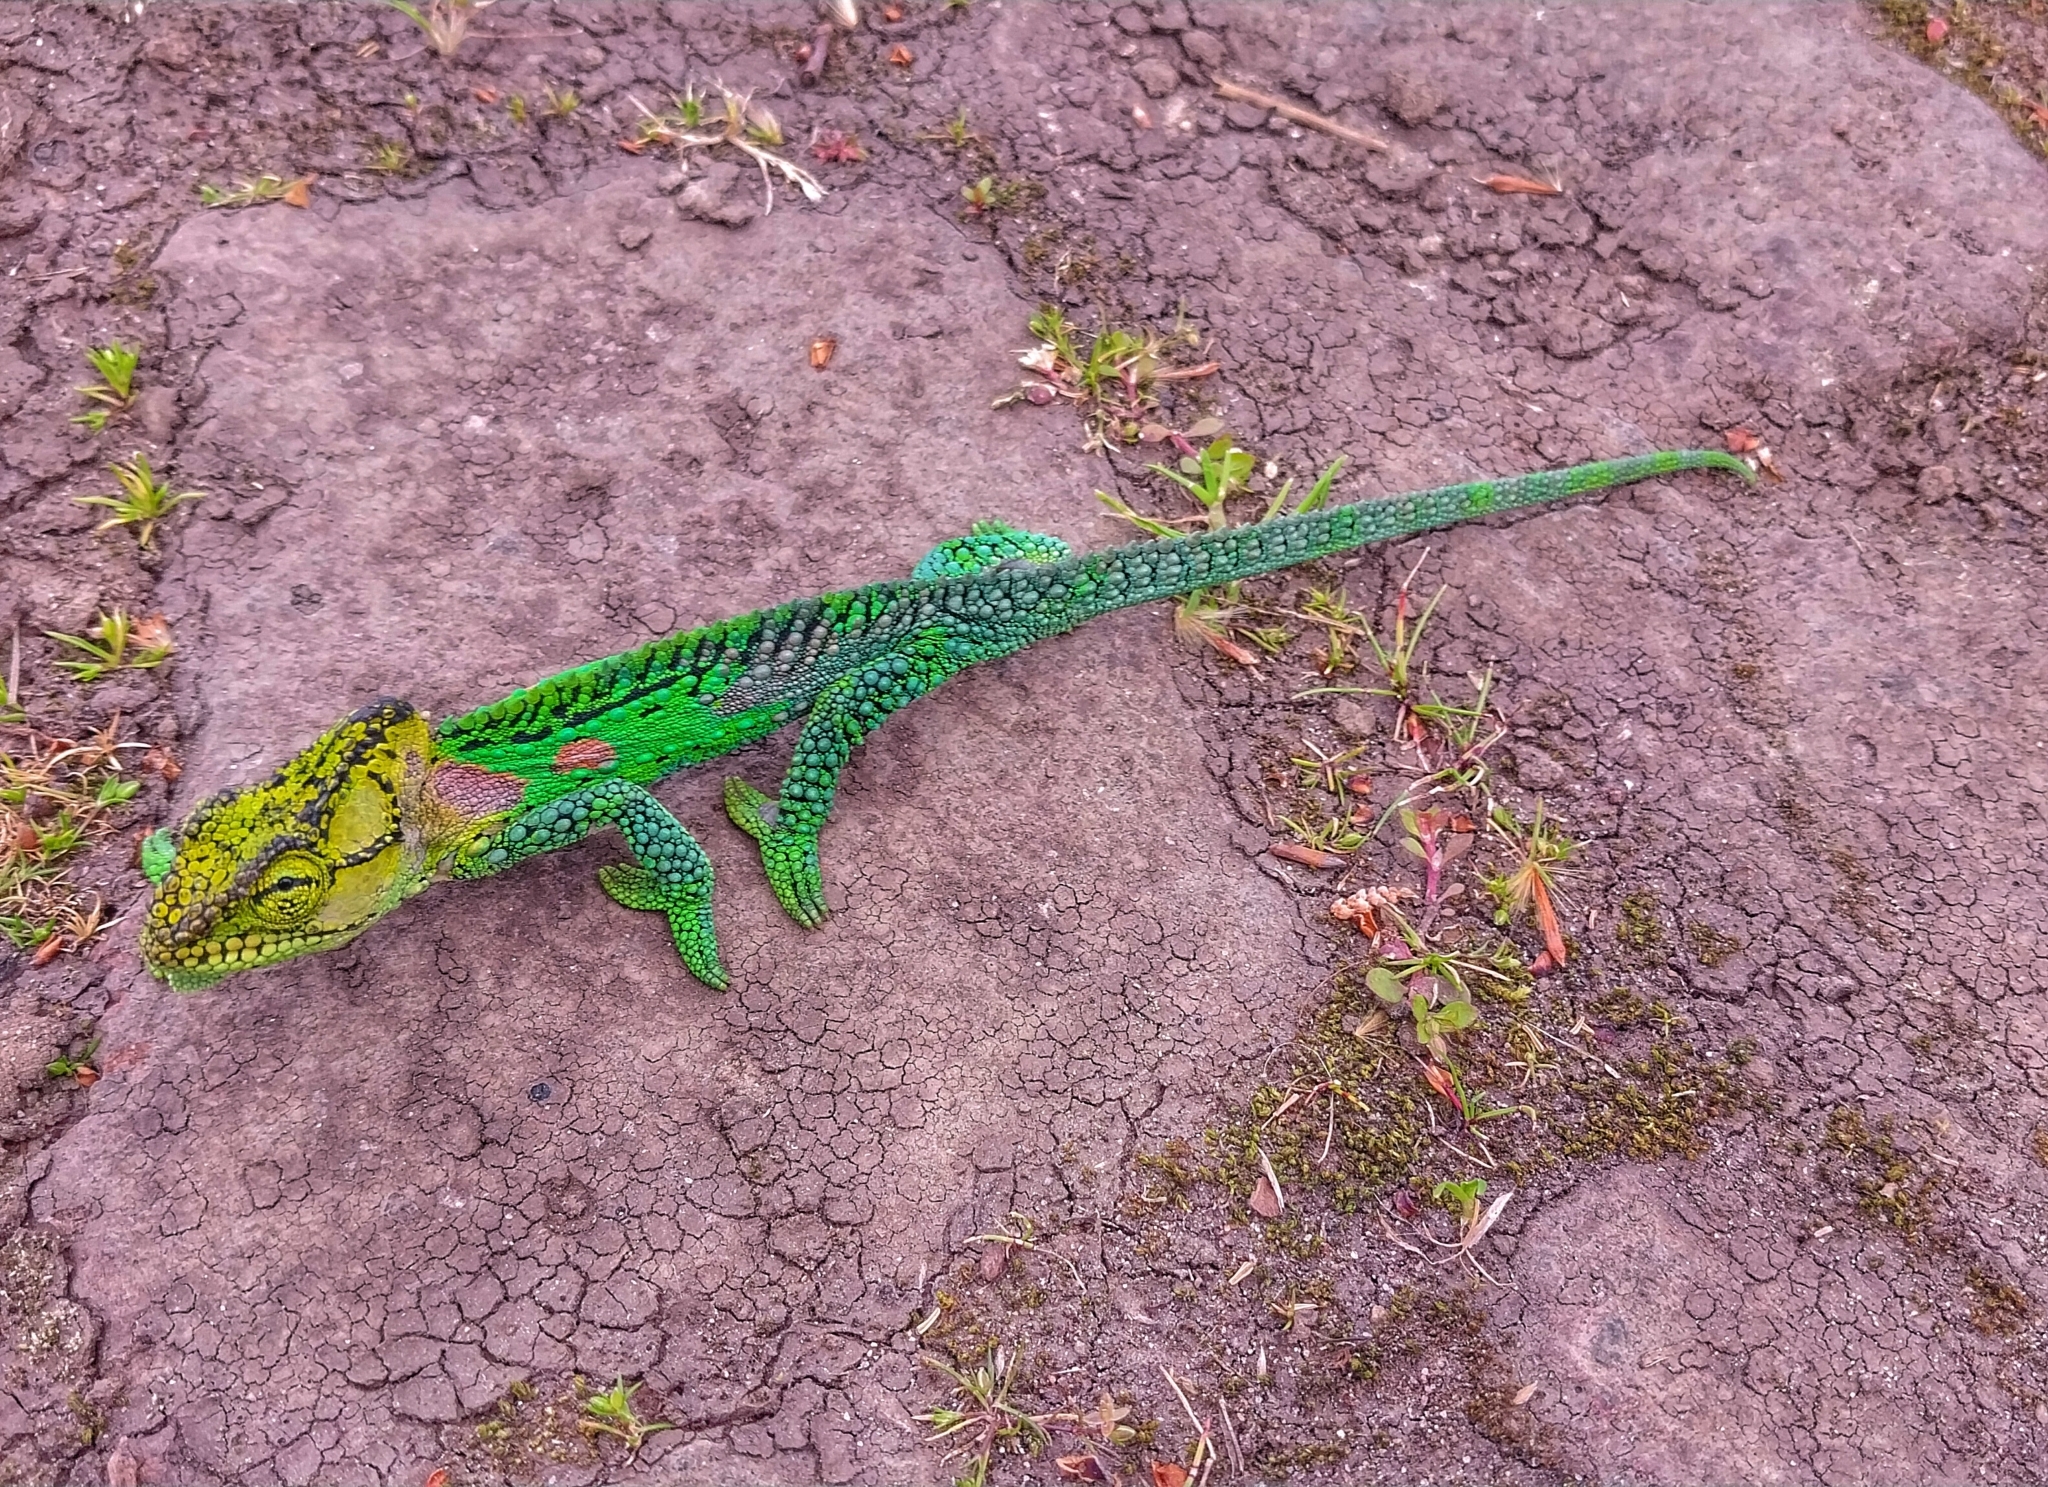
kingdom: Animalia
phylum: Chordata
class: Squamata
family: Chamaeleonidae
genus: Bradypodion
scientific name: Bradypodion damaranum
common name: Knysna dwarf chameleon
